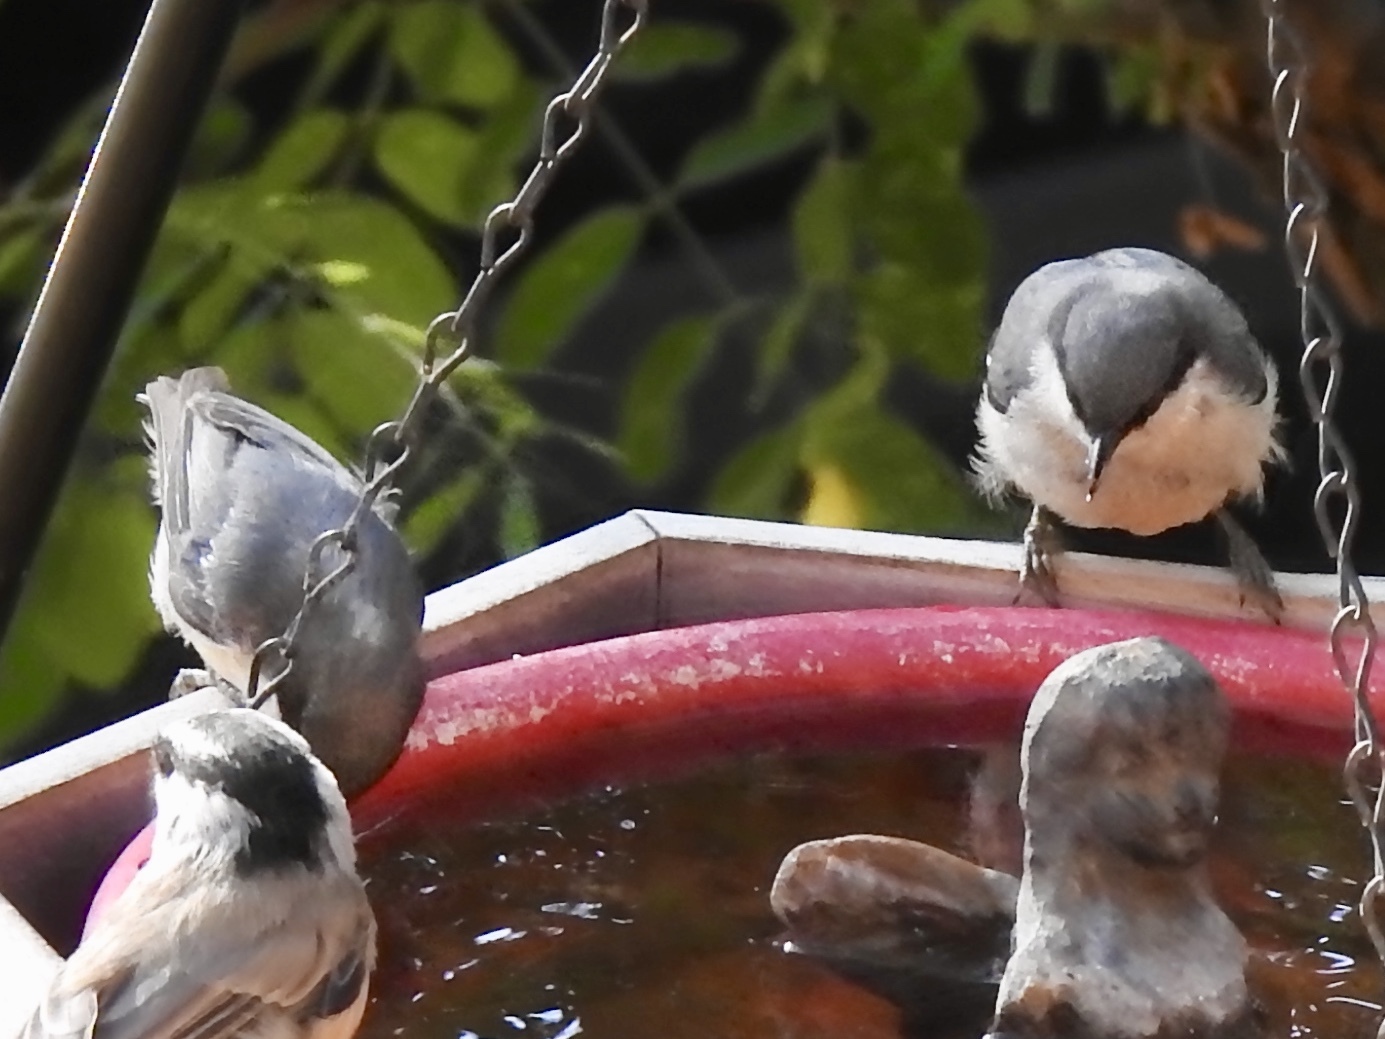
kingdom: Animalia
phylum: Chordata
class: Aves
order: Passeriformes
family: Sittidae
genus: Sitta
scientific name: Sitta pygmaea
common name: Pygmy nuthatch
